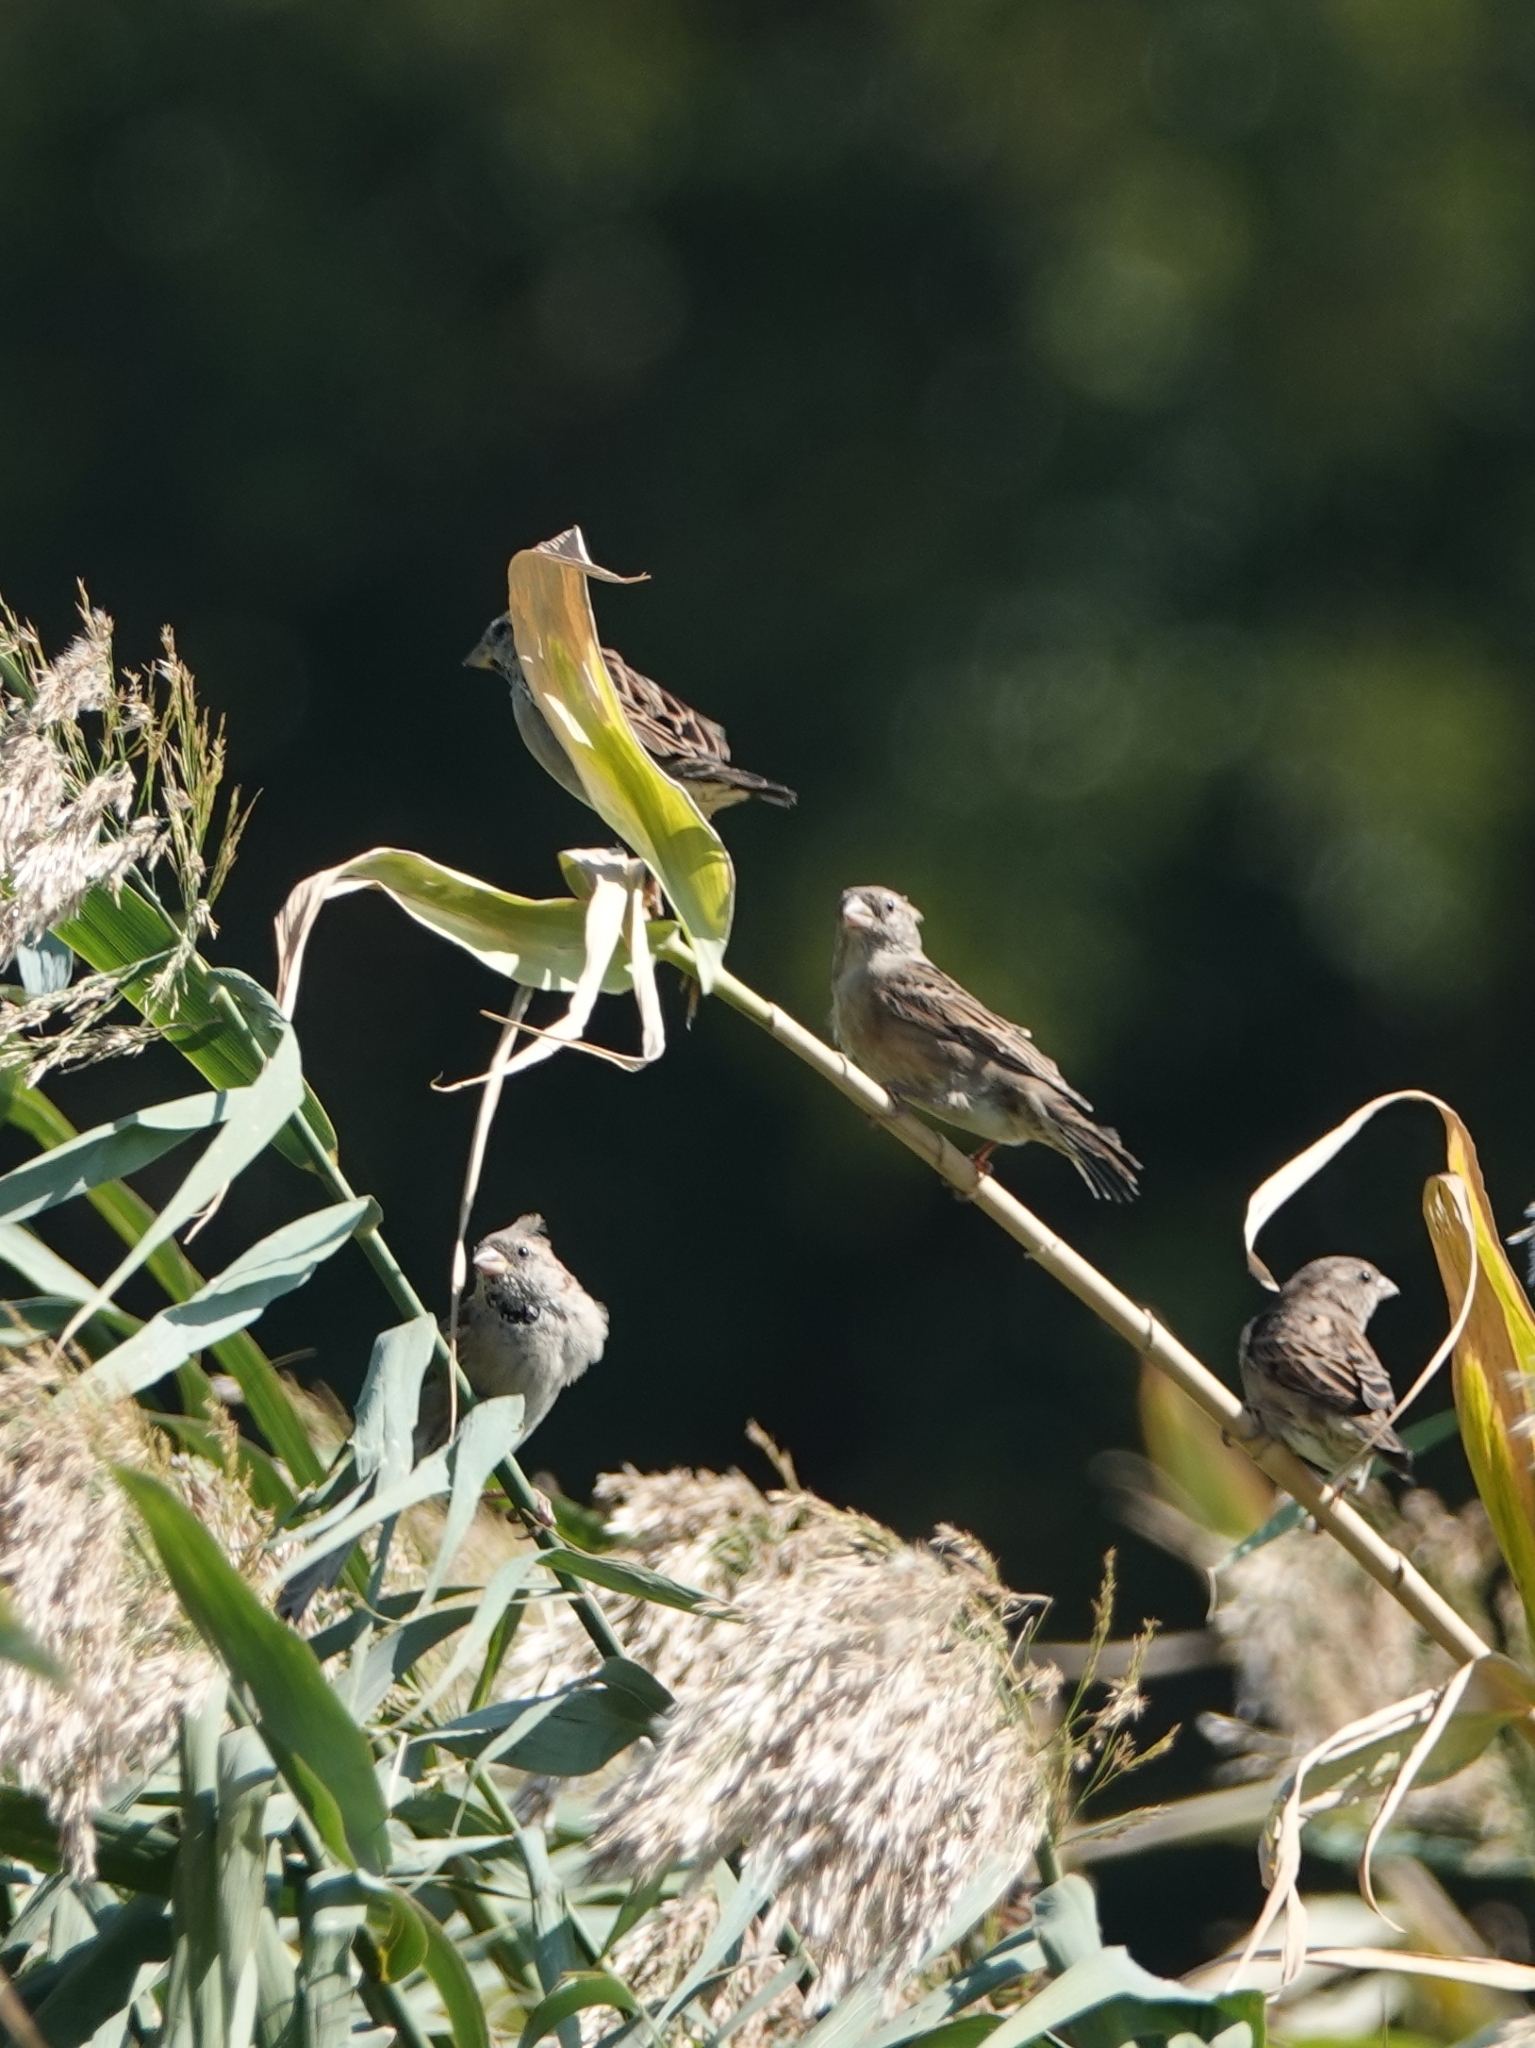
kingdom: Animalia
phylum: Chordata
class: Aves
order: Passeriformes
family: Passeridae
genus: Passer
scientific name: Passer domesticus
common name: House sparrow
